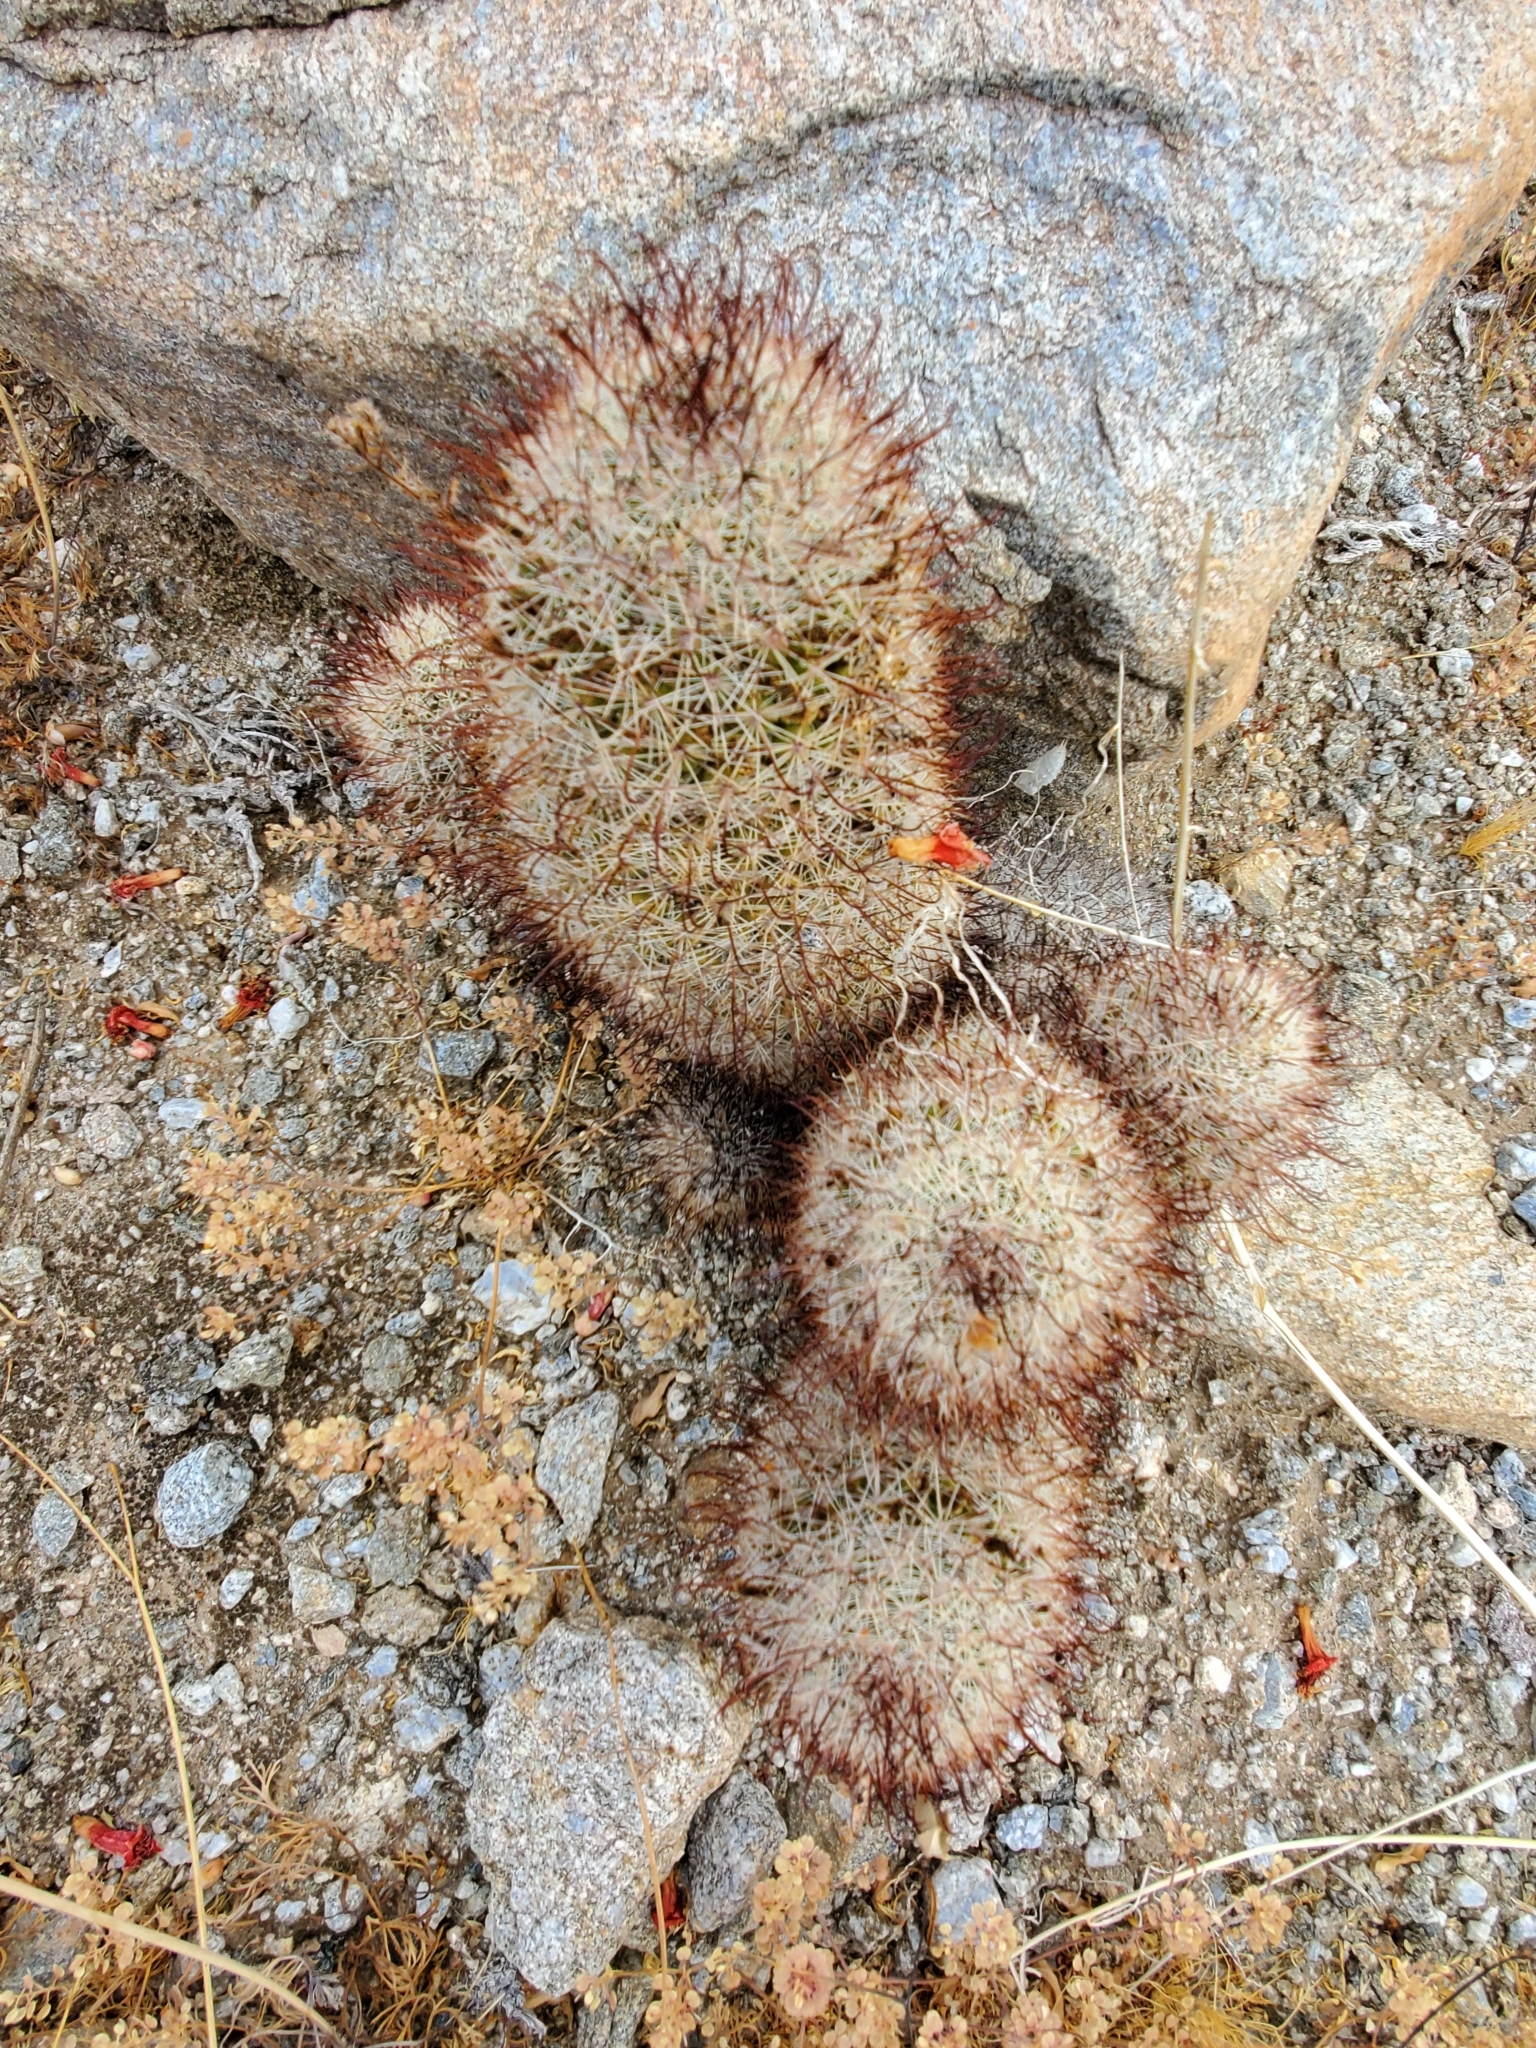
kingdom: Plantae
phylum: Tracheophyta
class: Magnoliopsida
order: Caryophyllales
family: Cactaceae
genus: Cochemiea
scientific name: Cochemiea dioica
